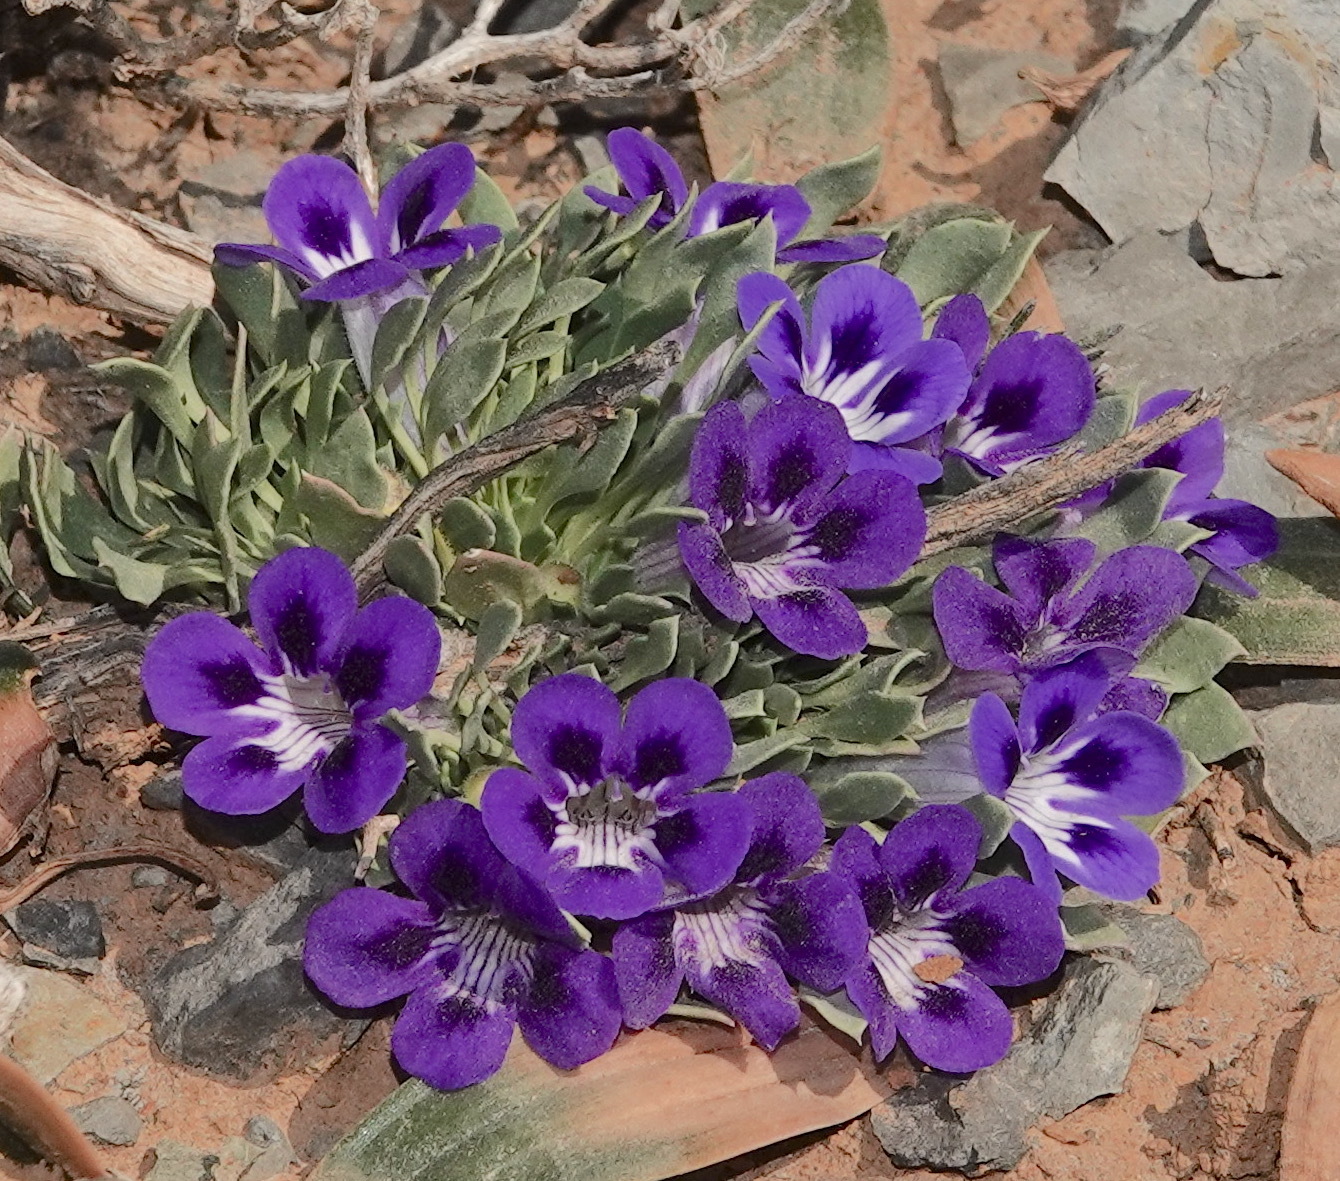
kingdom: Plantae
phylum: Tracheophyta
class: Magnoliopsida
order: Lamiales
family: Scrophulariaceae
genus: Aptosimum
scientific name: Aptosimum indivisum
